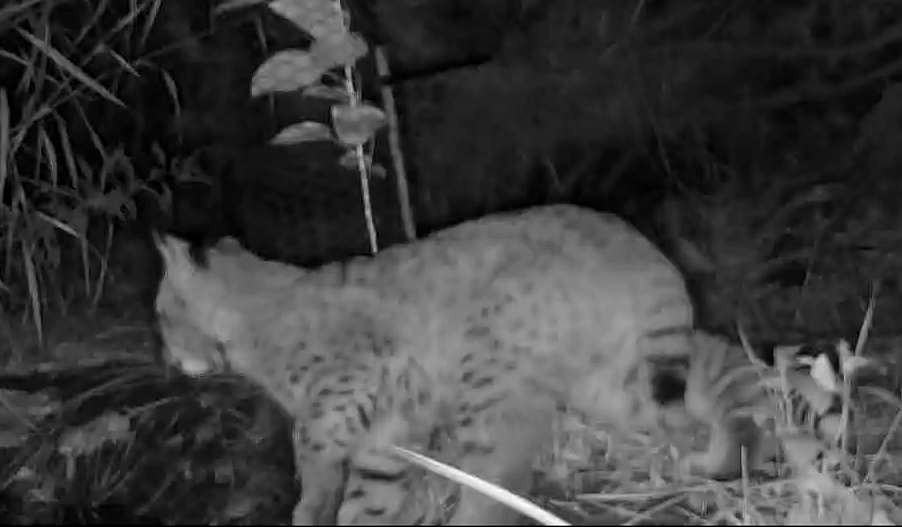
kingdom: Animalia
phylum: Chordata
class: Mammalia
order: Carnivora
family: Felidae
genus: Lynx
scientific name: Lynx rufus
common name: Bobcat
